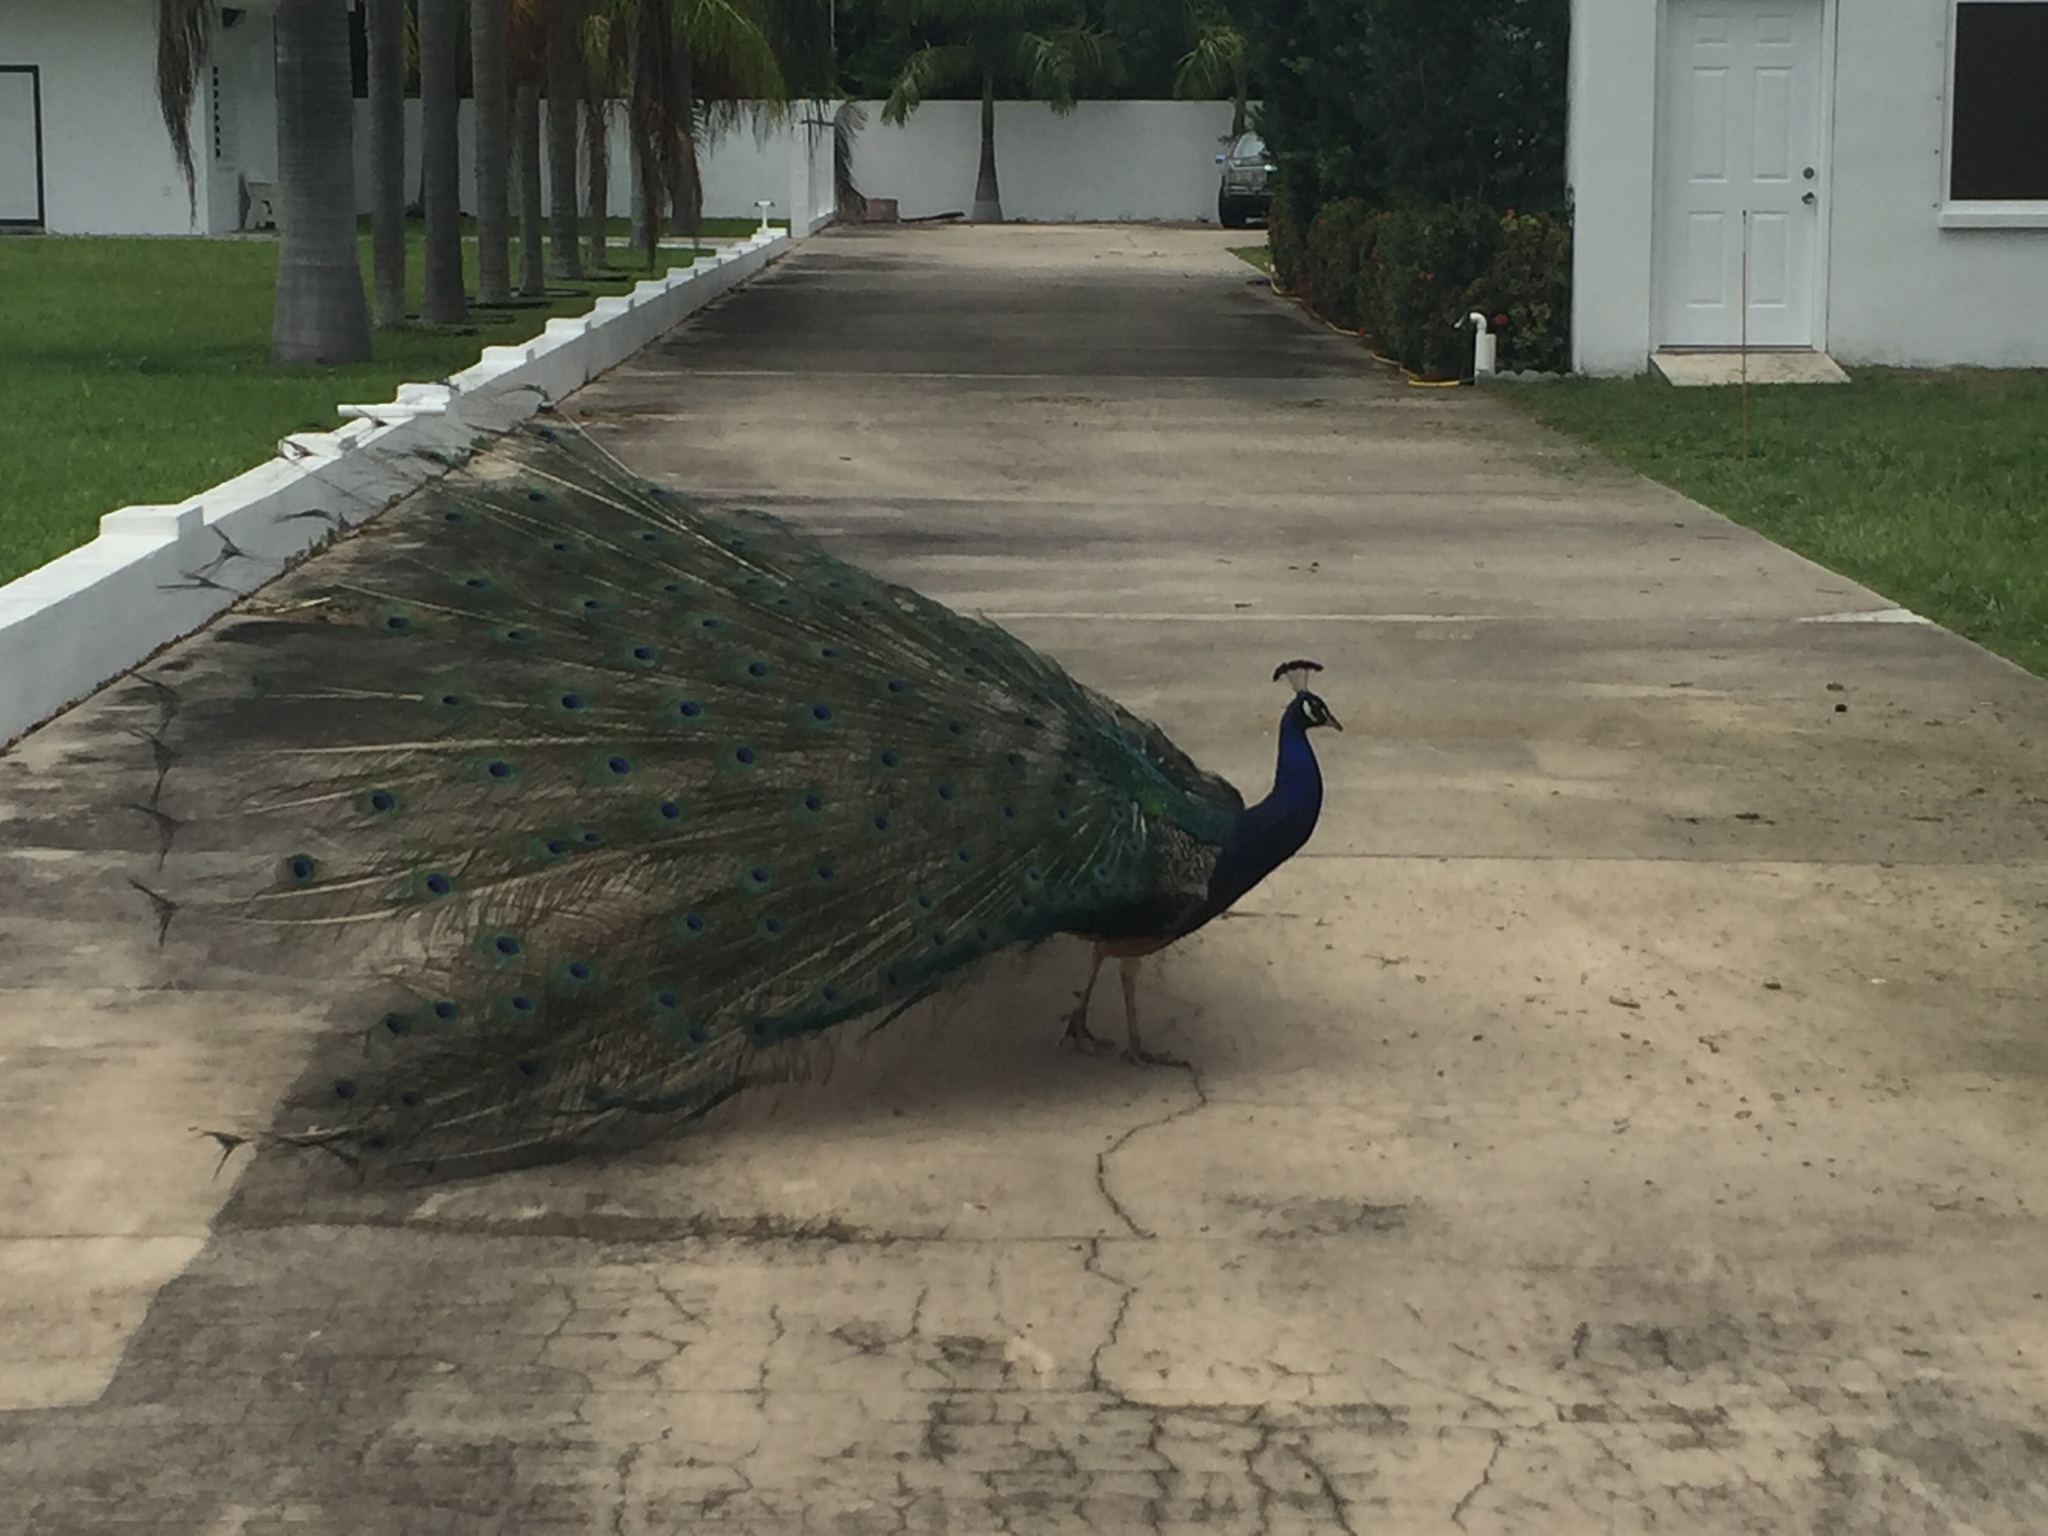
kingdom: Animalia
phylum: Chordata
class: Aves
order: Galliformes
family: Phasianidae
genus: Pavo
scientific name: Pavo cristatus
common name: Indian peafowl
